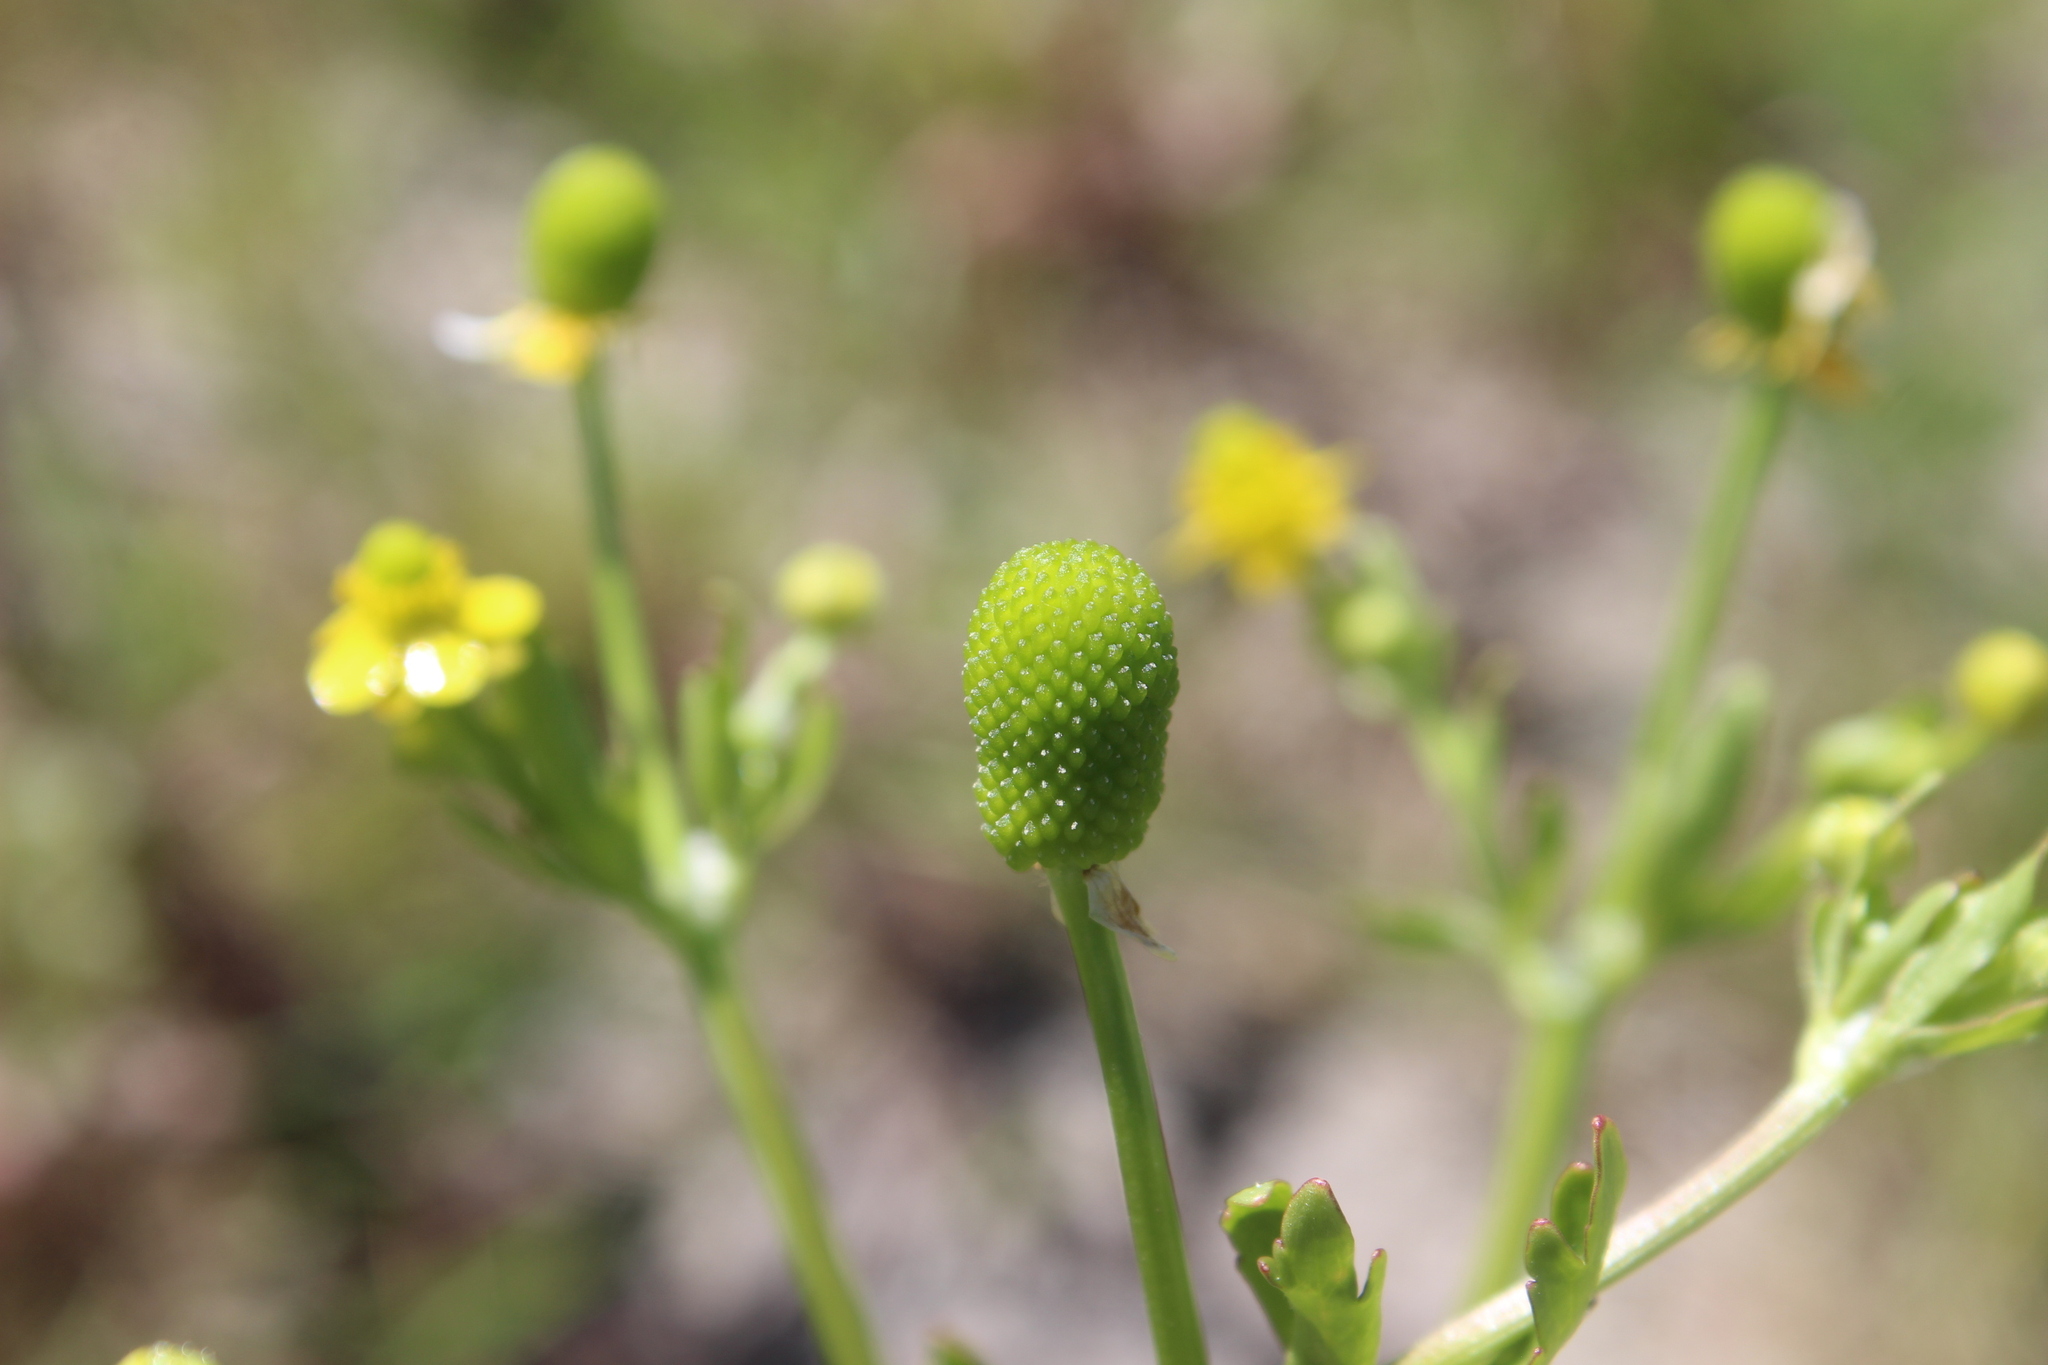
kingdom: Plantae
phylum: Tracheophyta
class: Magnoliopsida
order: Ranunculales
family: Ranunculaceae
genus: Ranunculus
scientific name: Ranunculus sceleratus
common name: Celery-leaved buttercup
